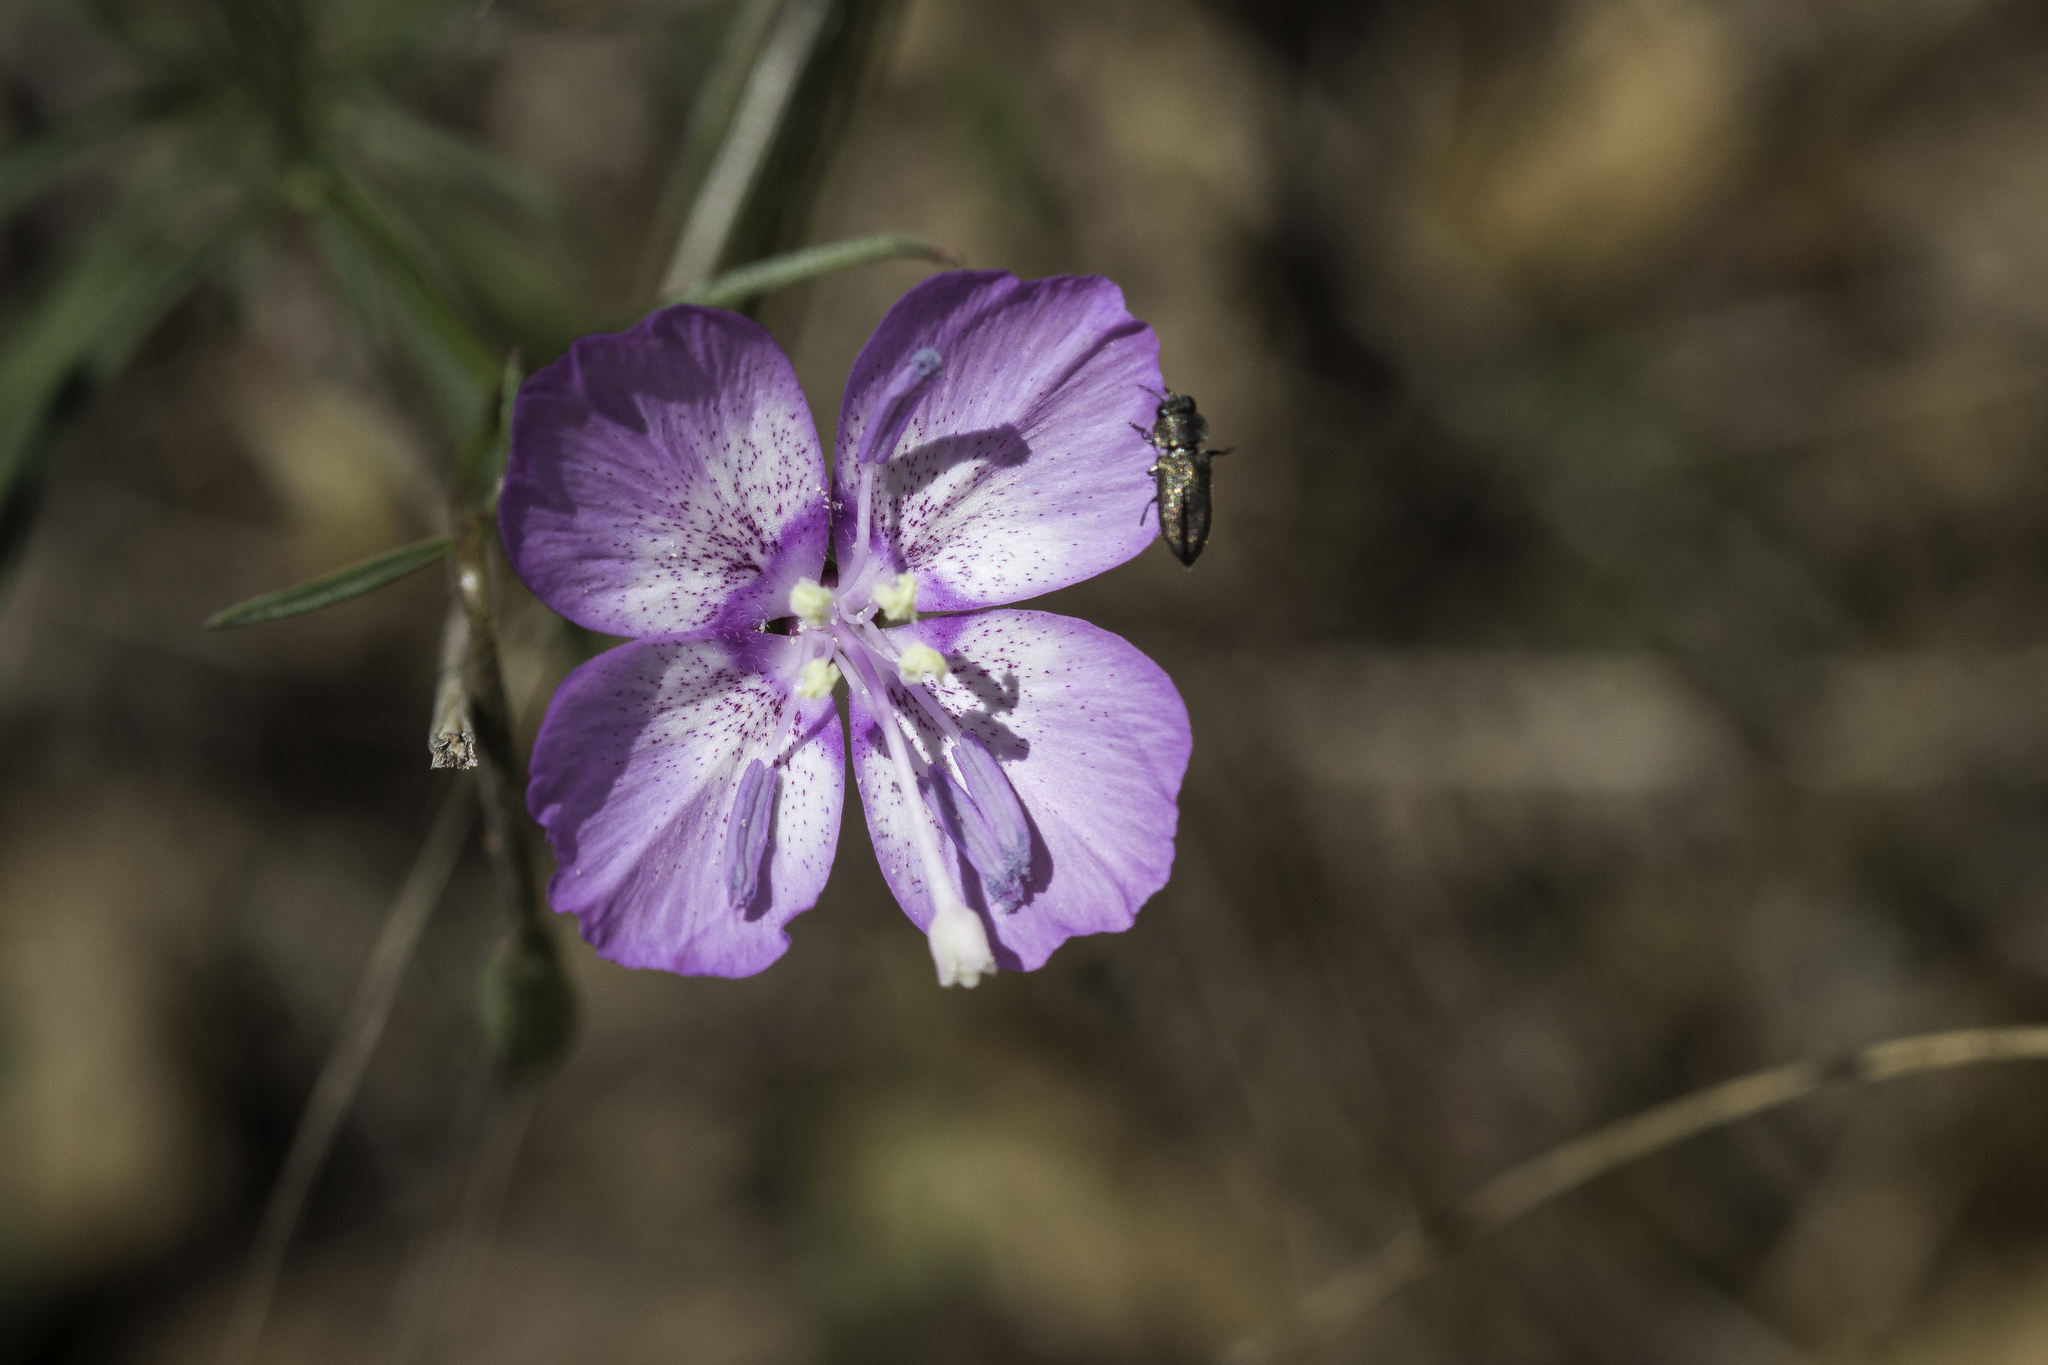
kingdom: Plantae
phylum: Tracheophyta
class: Magnoliopsida
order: Myrtales
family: Onagraceae
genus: Clarkia
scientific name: Clarkia cylindrica
